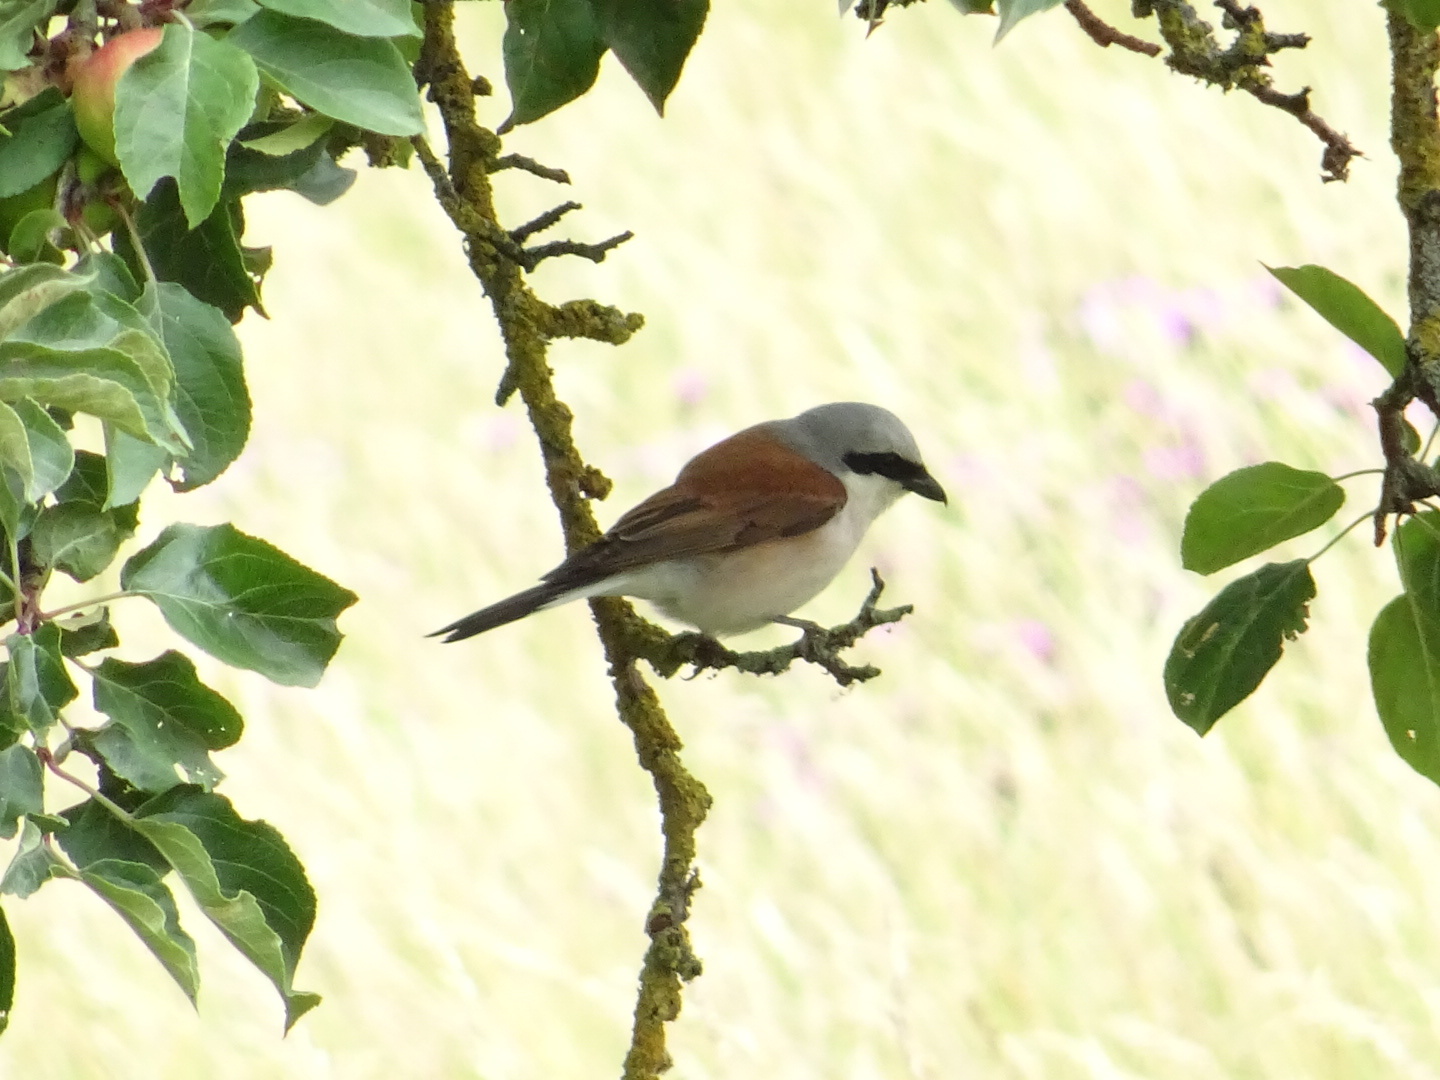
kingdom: Animalia
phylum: Chordata
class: Aves
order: Passeriformes
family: Laniidae
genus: Lanius
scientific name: Lanius collurio
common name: Red-backed shrike
